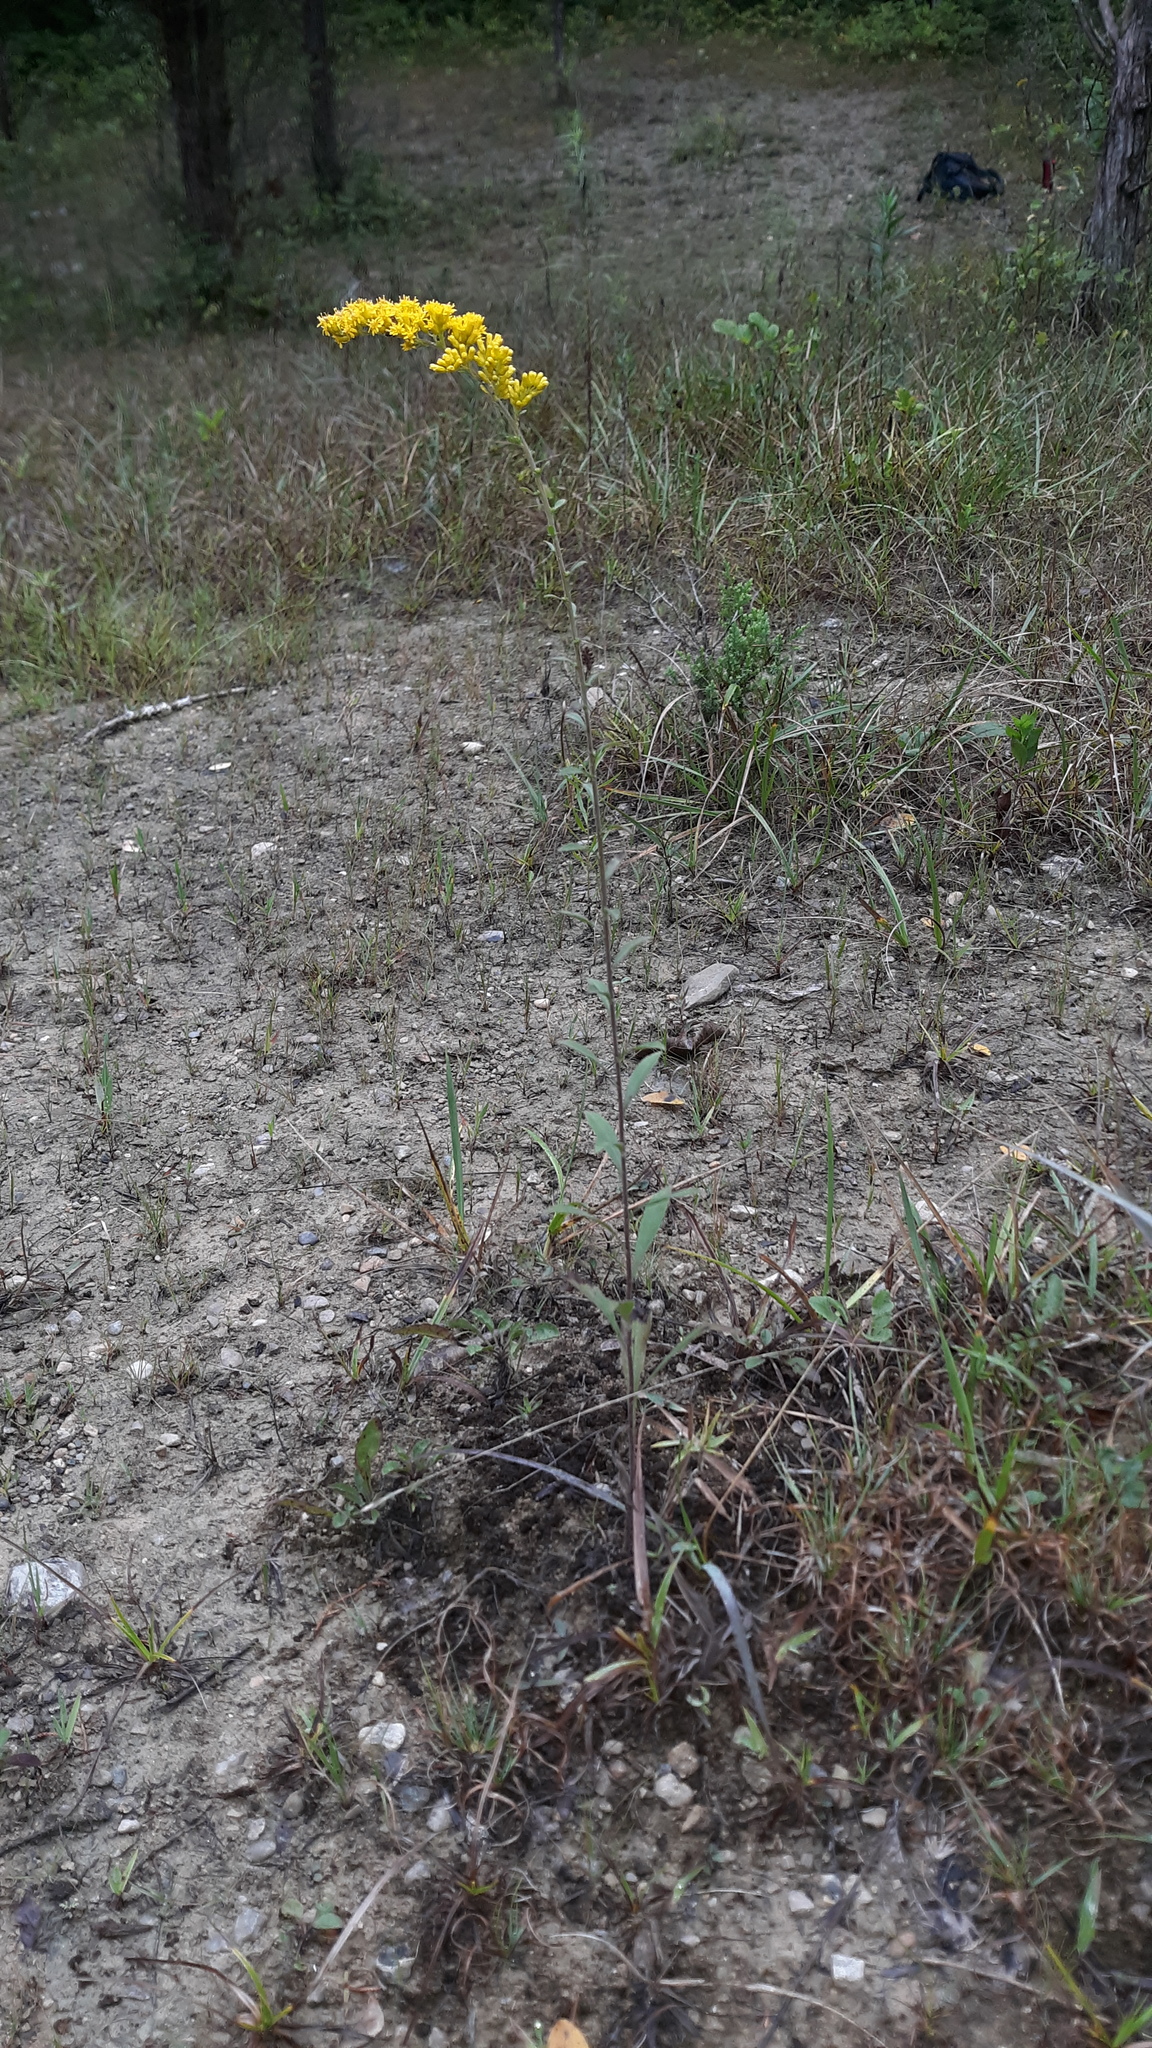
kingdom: Plantae
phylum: Tracheophyta
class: Magnoliopsida
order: Asterales
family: Asteraceae
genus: Solidago
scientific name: Solidago nemoralis
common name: Grey goldenrod
